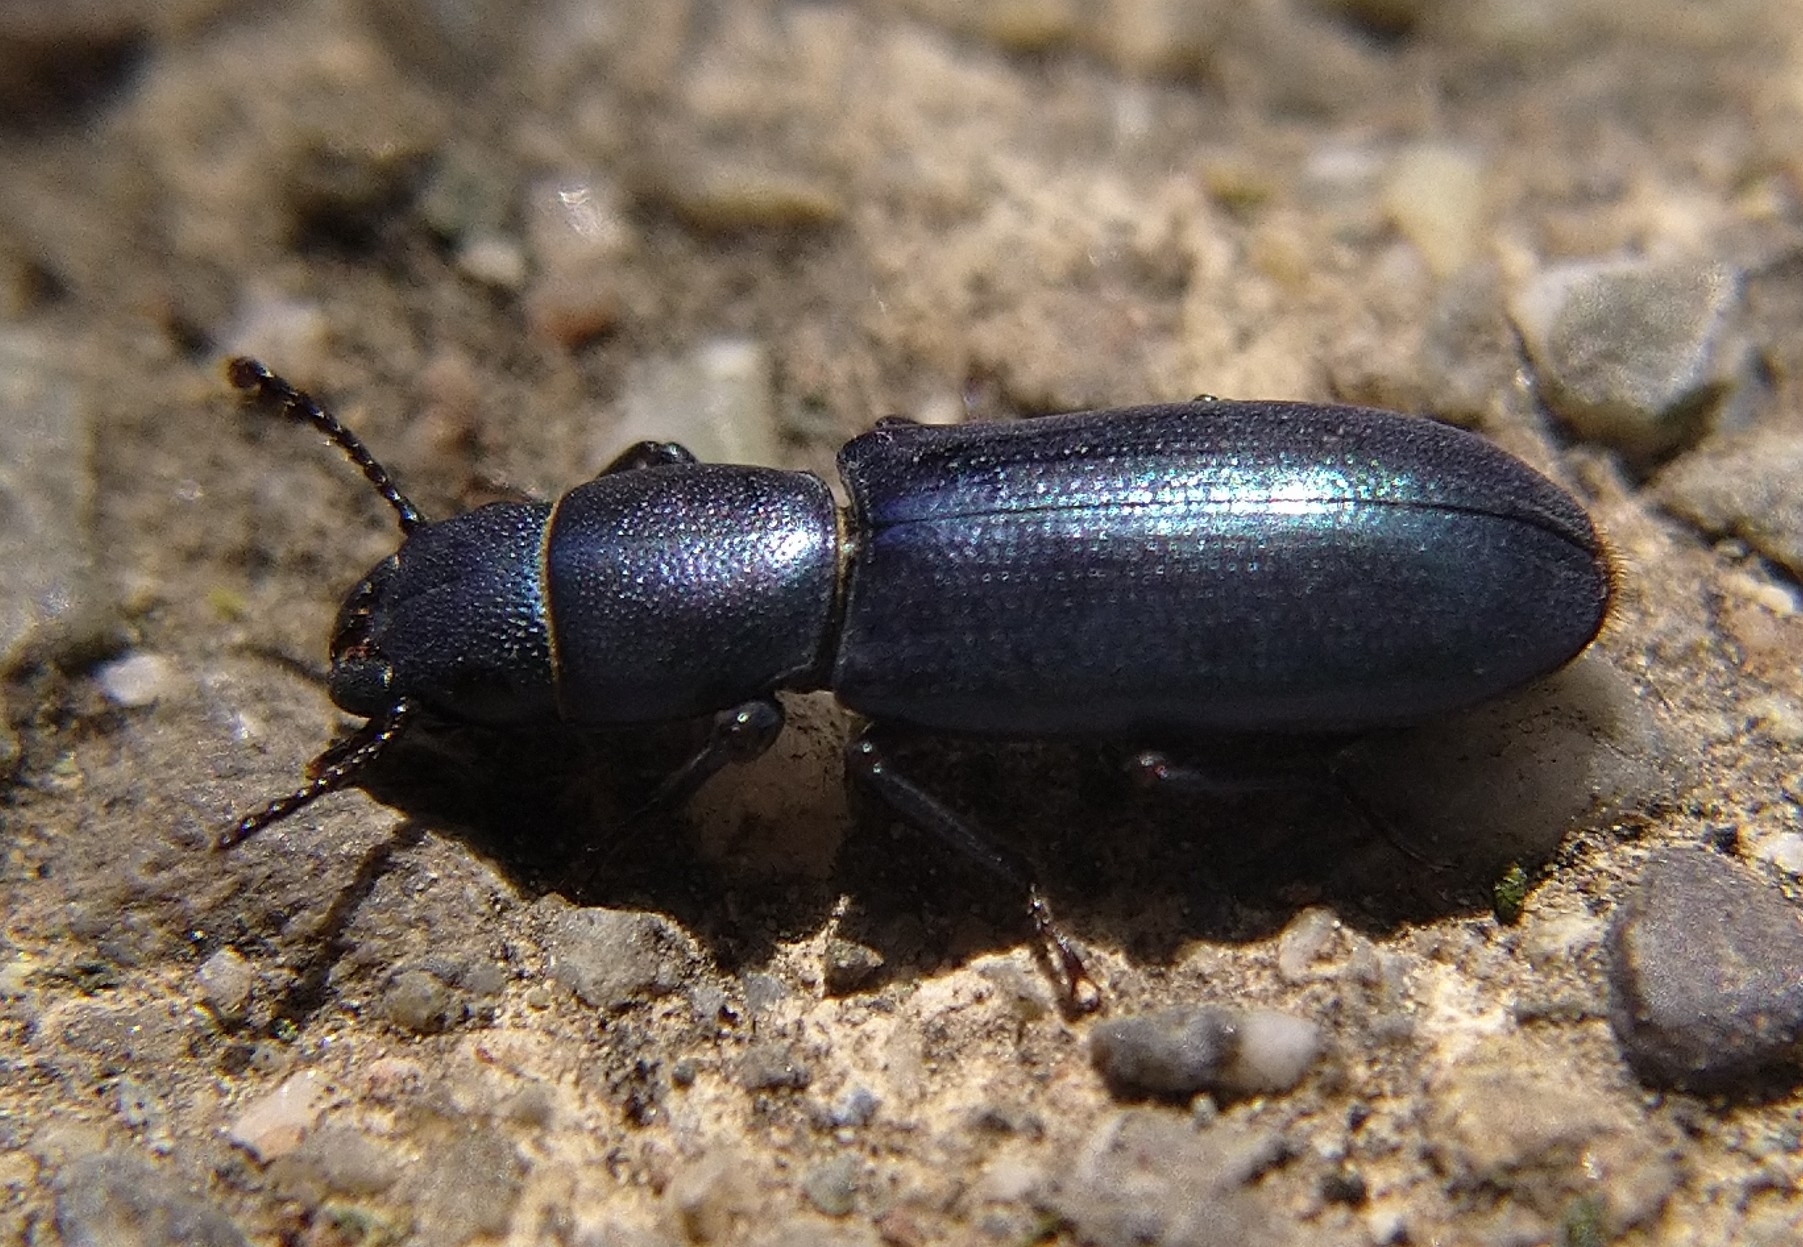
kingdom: Animalia
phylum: Arthropoda
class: Insecta
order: Coleoptera
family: Trogossitidae
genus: Temnoscheila
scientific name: Temnoscheila chlorodia
